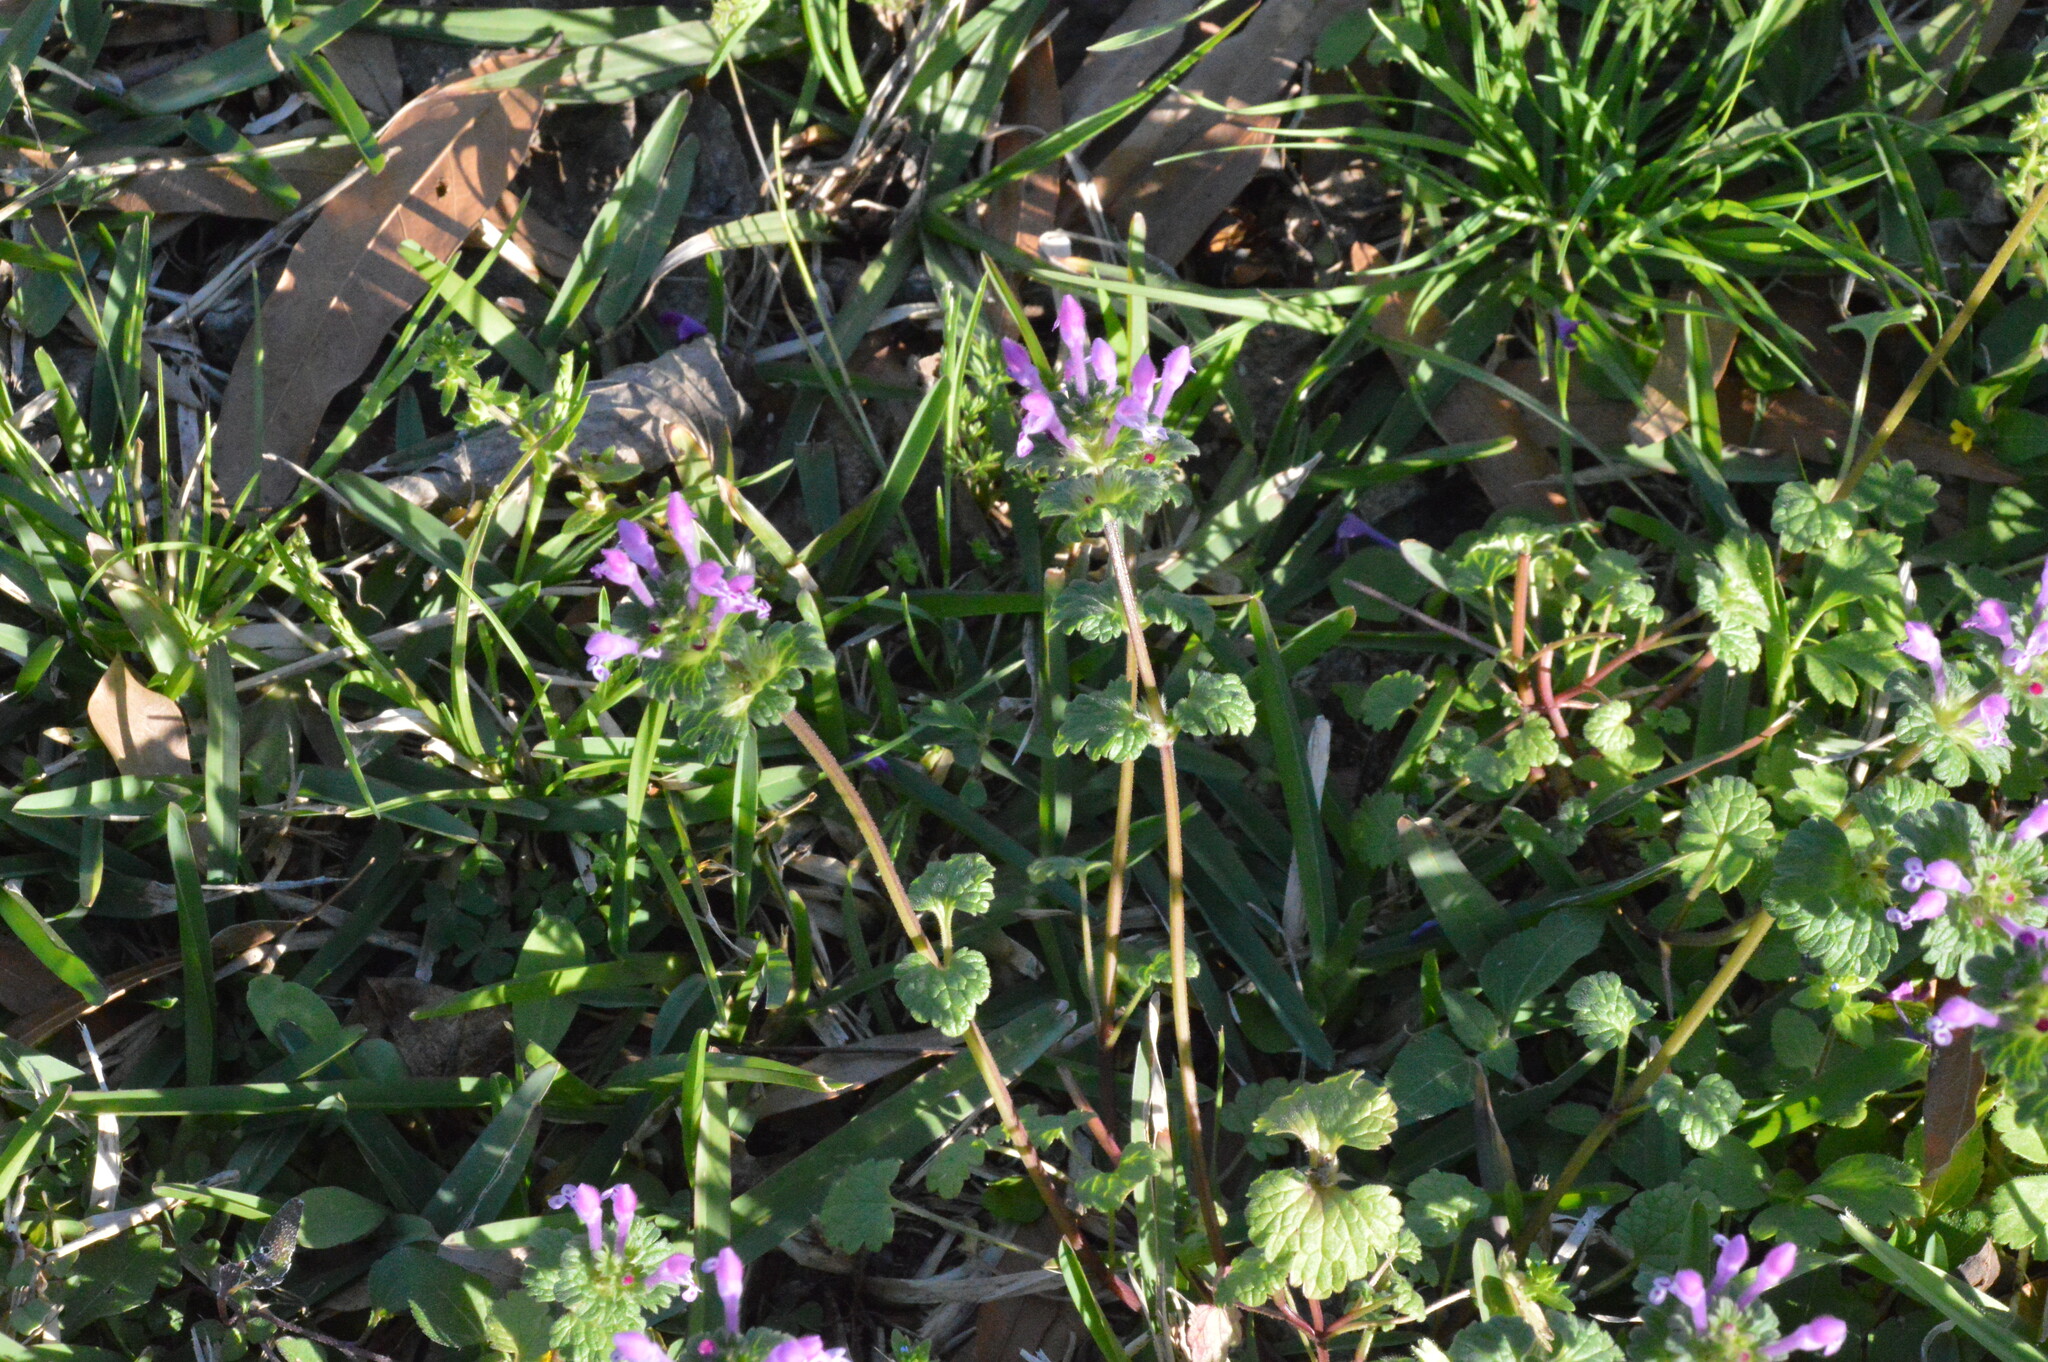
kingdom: Plantae
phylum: Tracheophyta
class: Magnoliopsida
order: Lamiales
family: Lamiaceae
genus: Lamium
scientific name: Lamium amplexicaule
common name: Henbit dead-nettle
